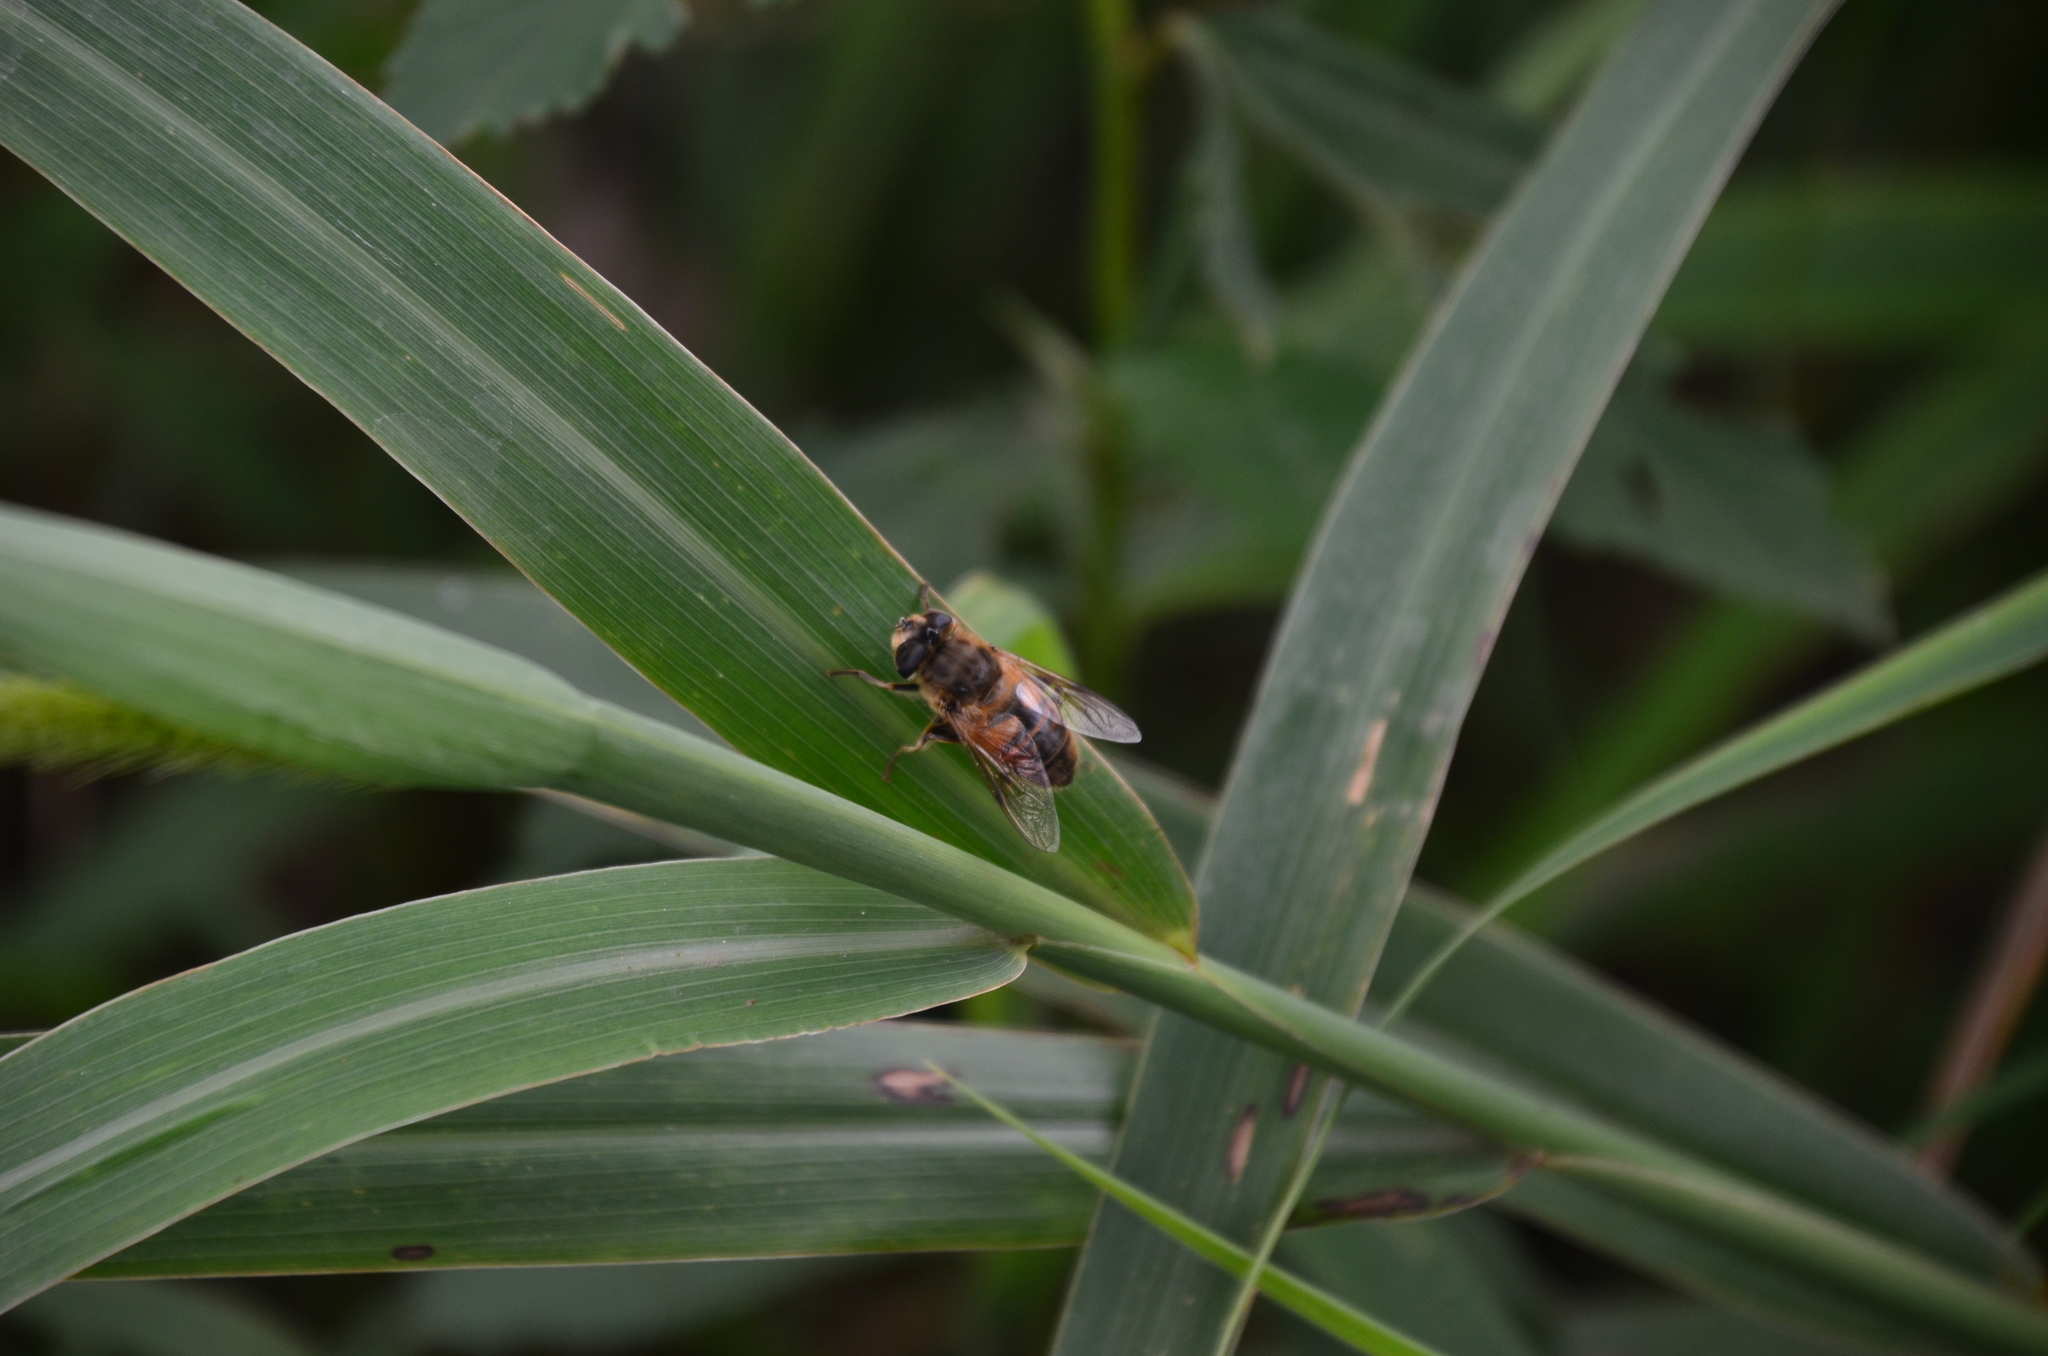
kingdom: Animalia
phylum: Arthropoda
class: Insecta
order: Diptera
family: Syrphidae
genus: Eristalis
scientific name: Eristalis tenax
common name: Drone fly
